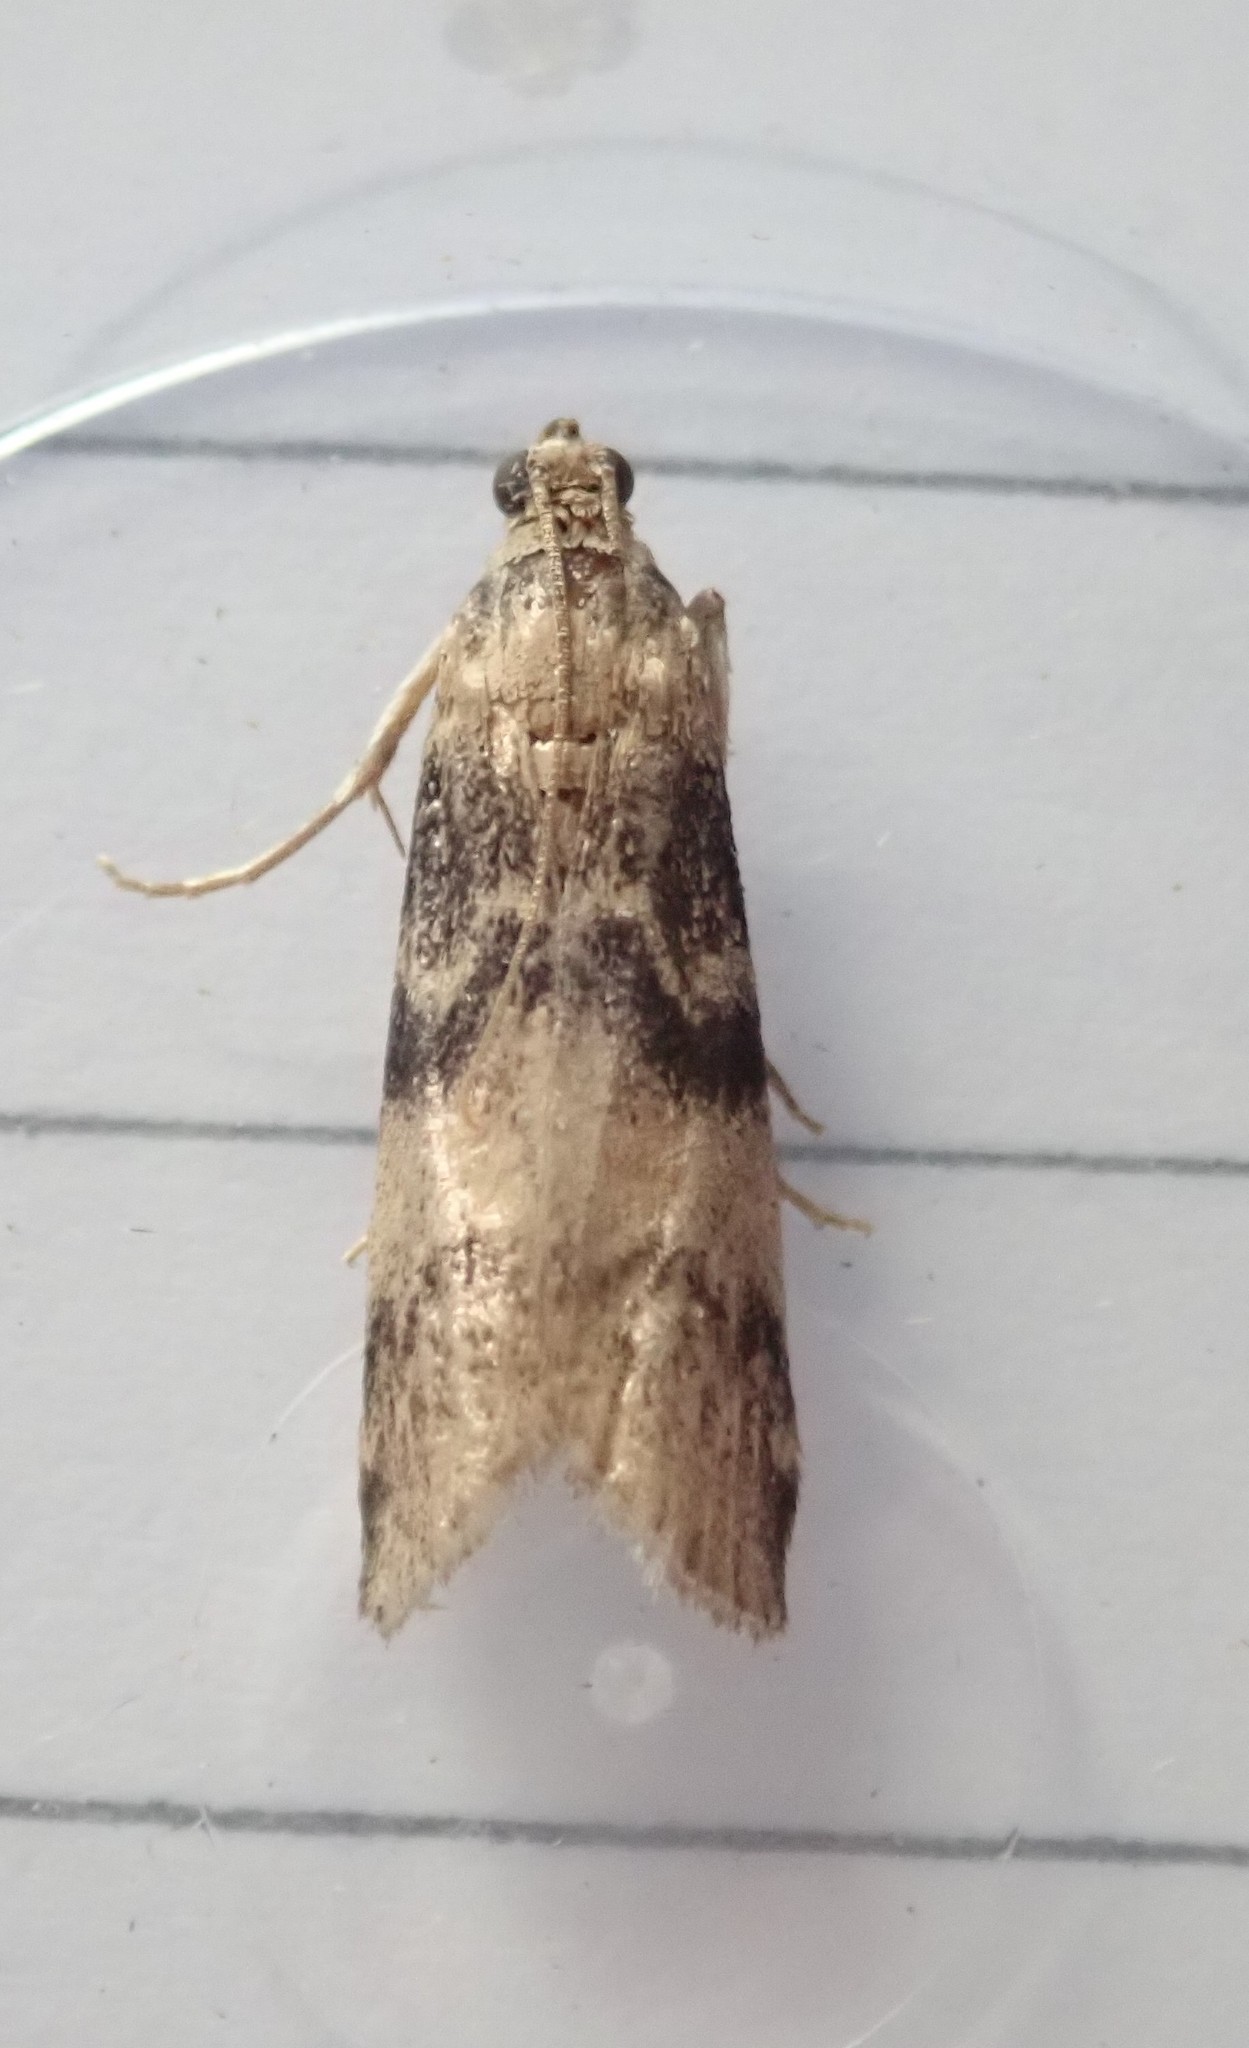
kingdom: Animalia
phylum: Arthropoda
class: Insecta
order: Lepidoptera
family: Pyralidae
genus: Euzophera
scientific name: Euzophera pinguis
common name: Ash-bark knot-horn
